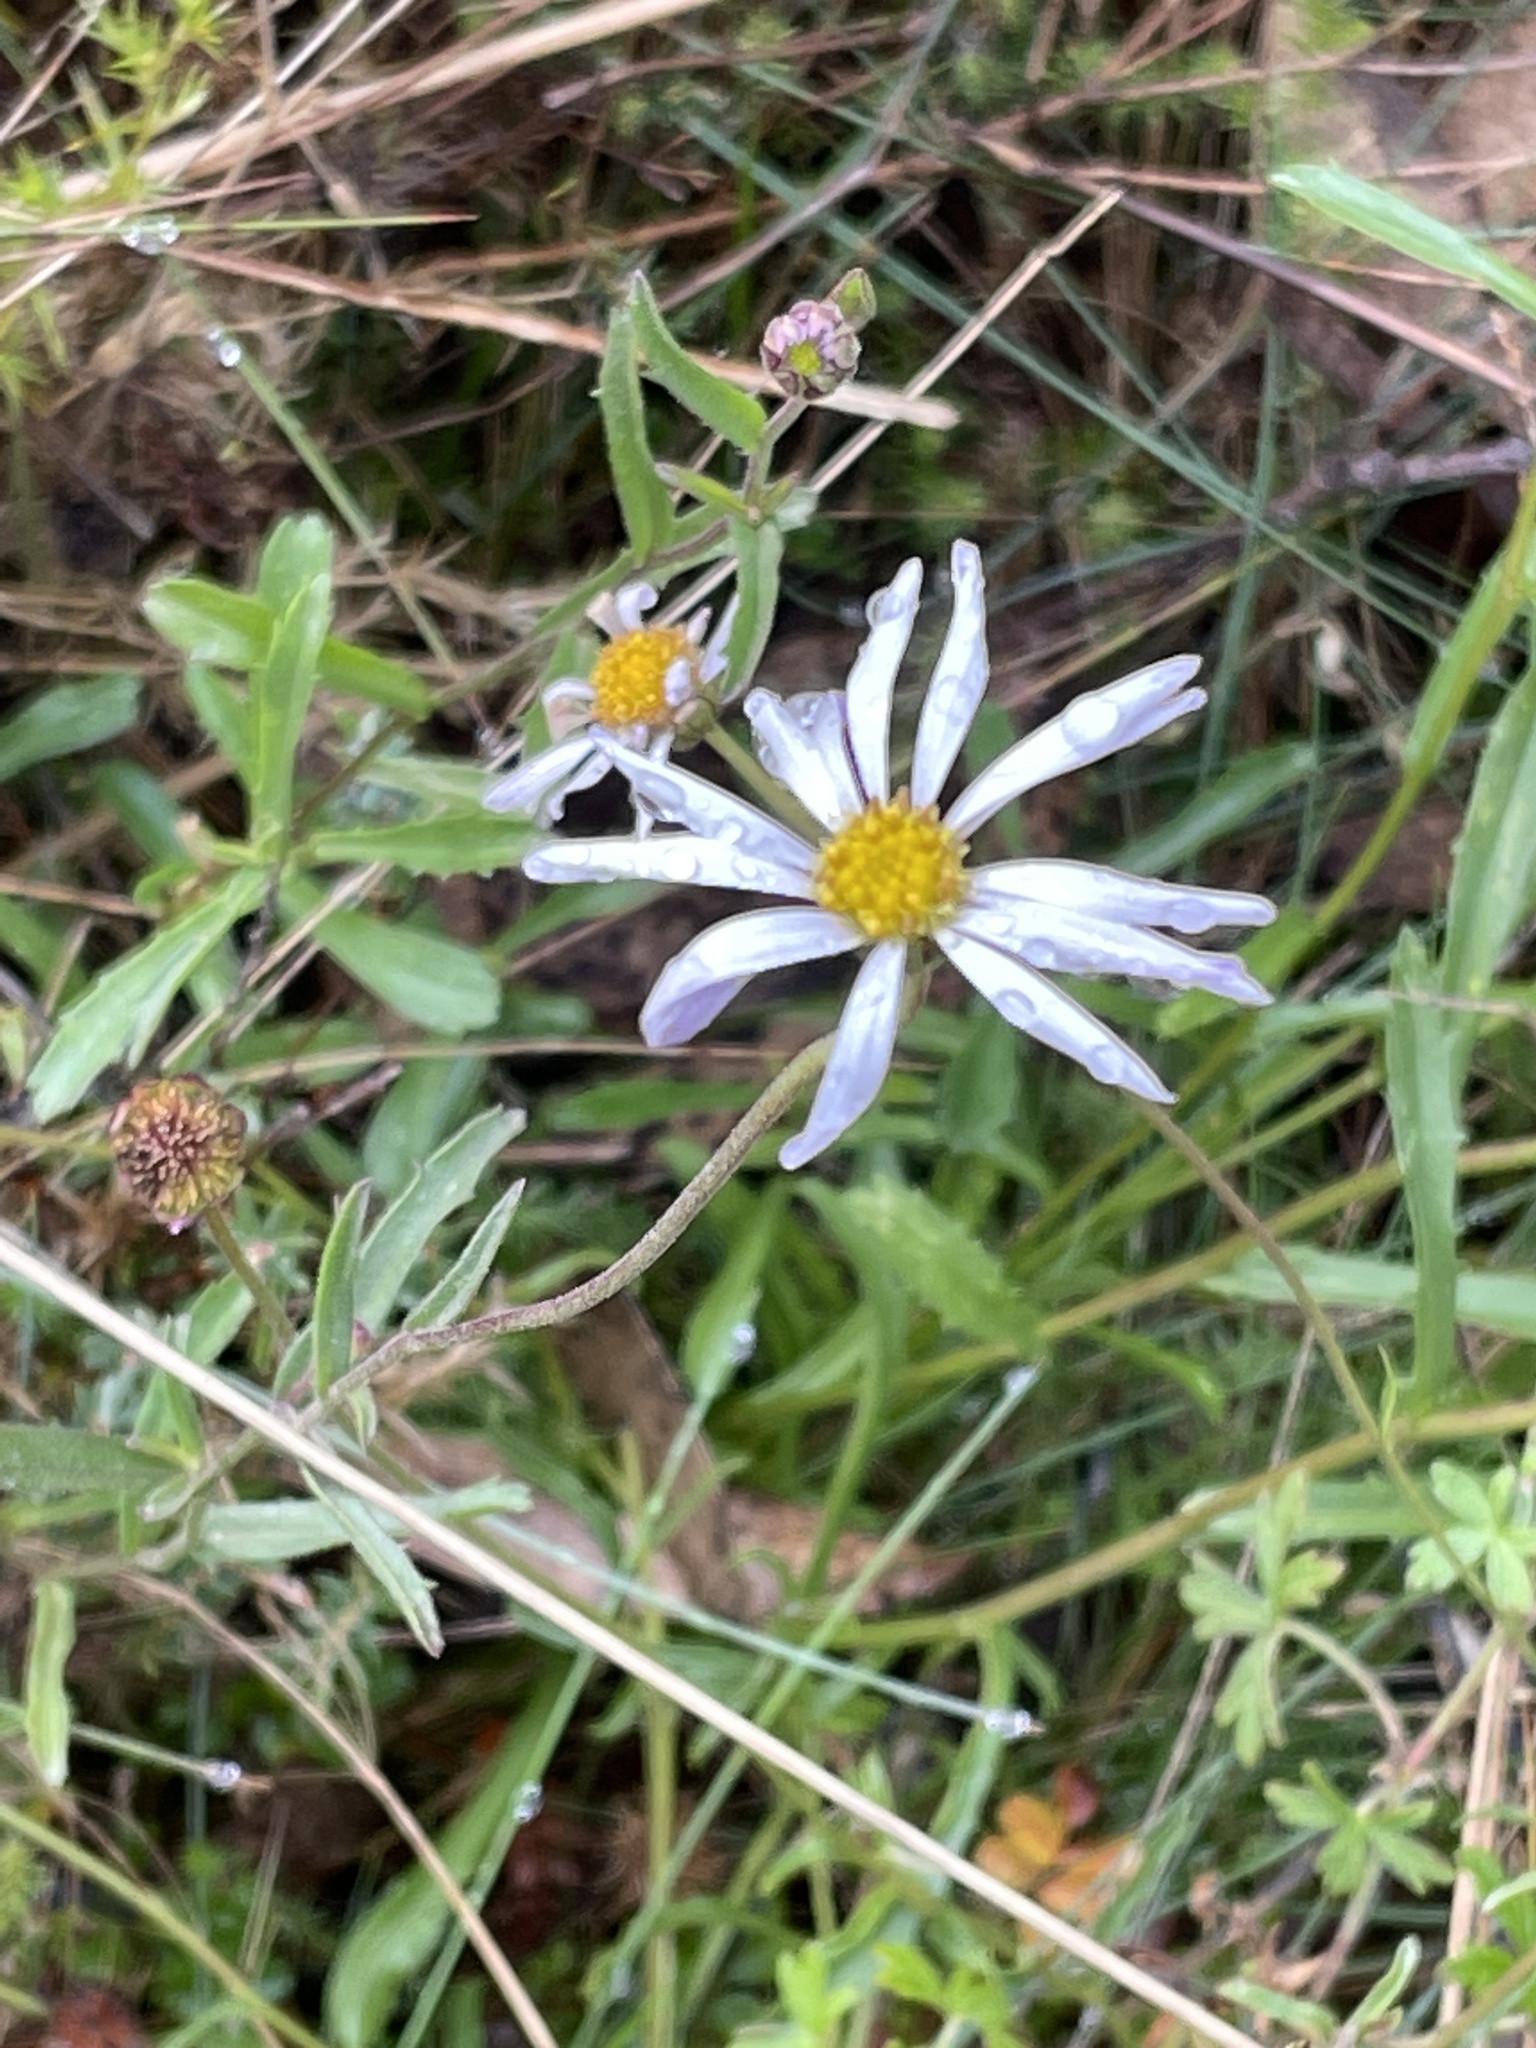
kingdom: Plantae
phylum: Tracheophyta
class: Magnoliopsida
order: Asterales
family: Asteraceae
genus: Brachyscome
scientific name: Brachyscome aculeata
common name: Hill daisy
